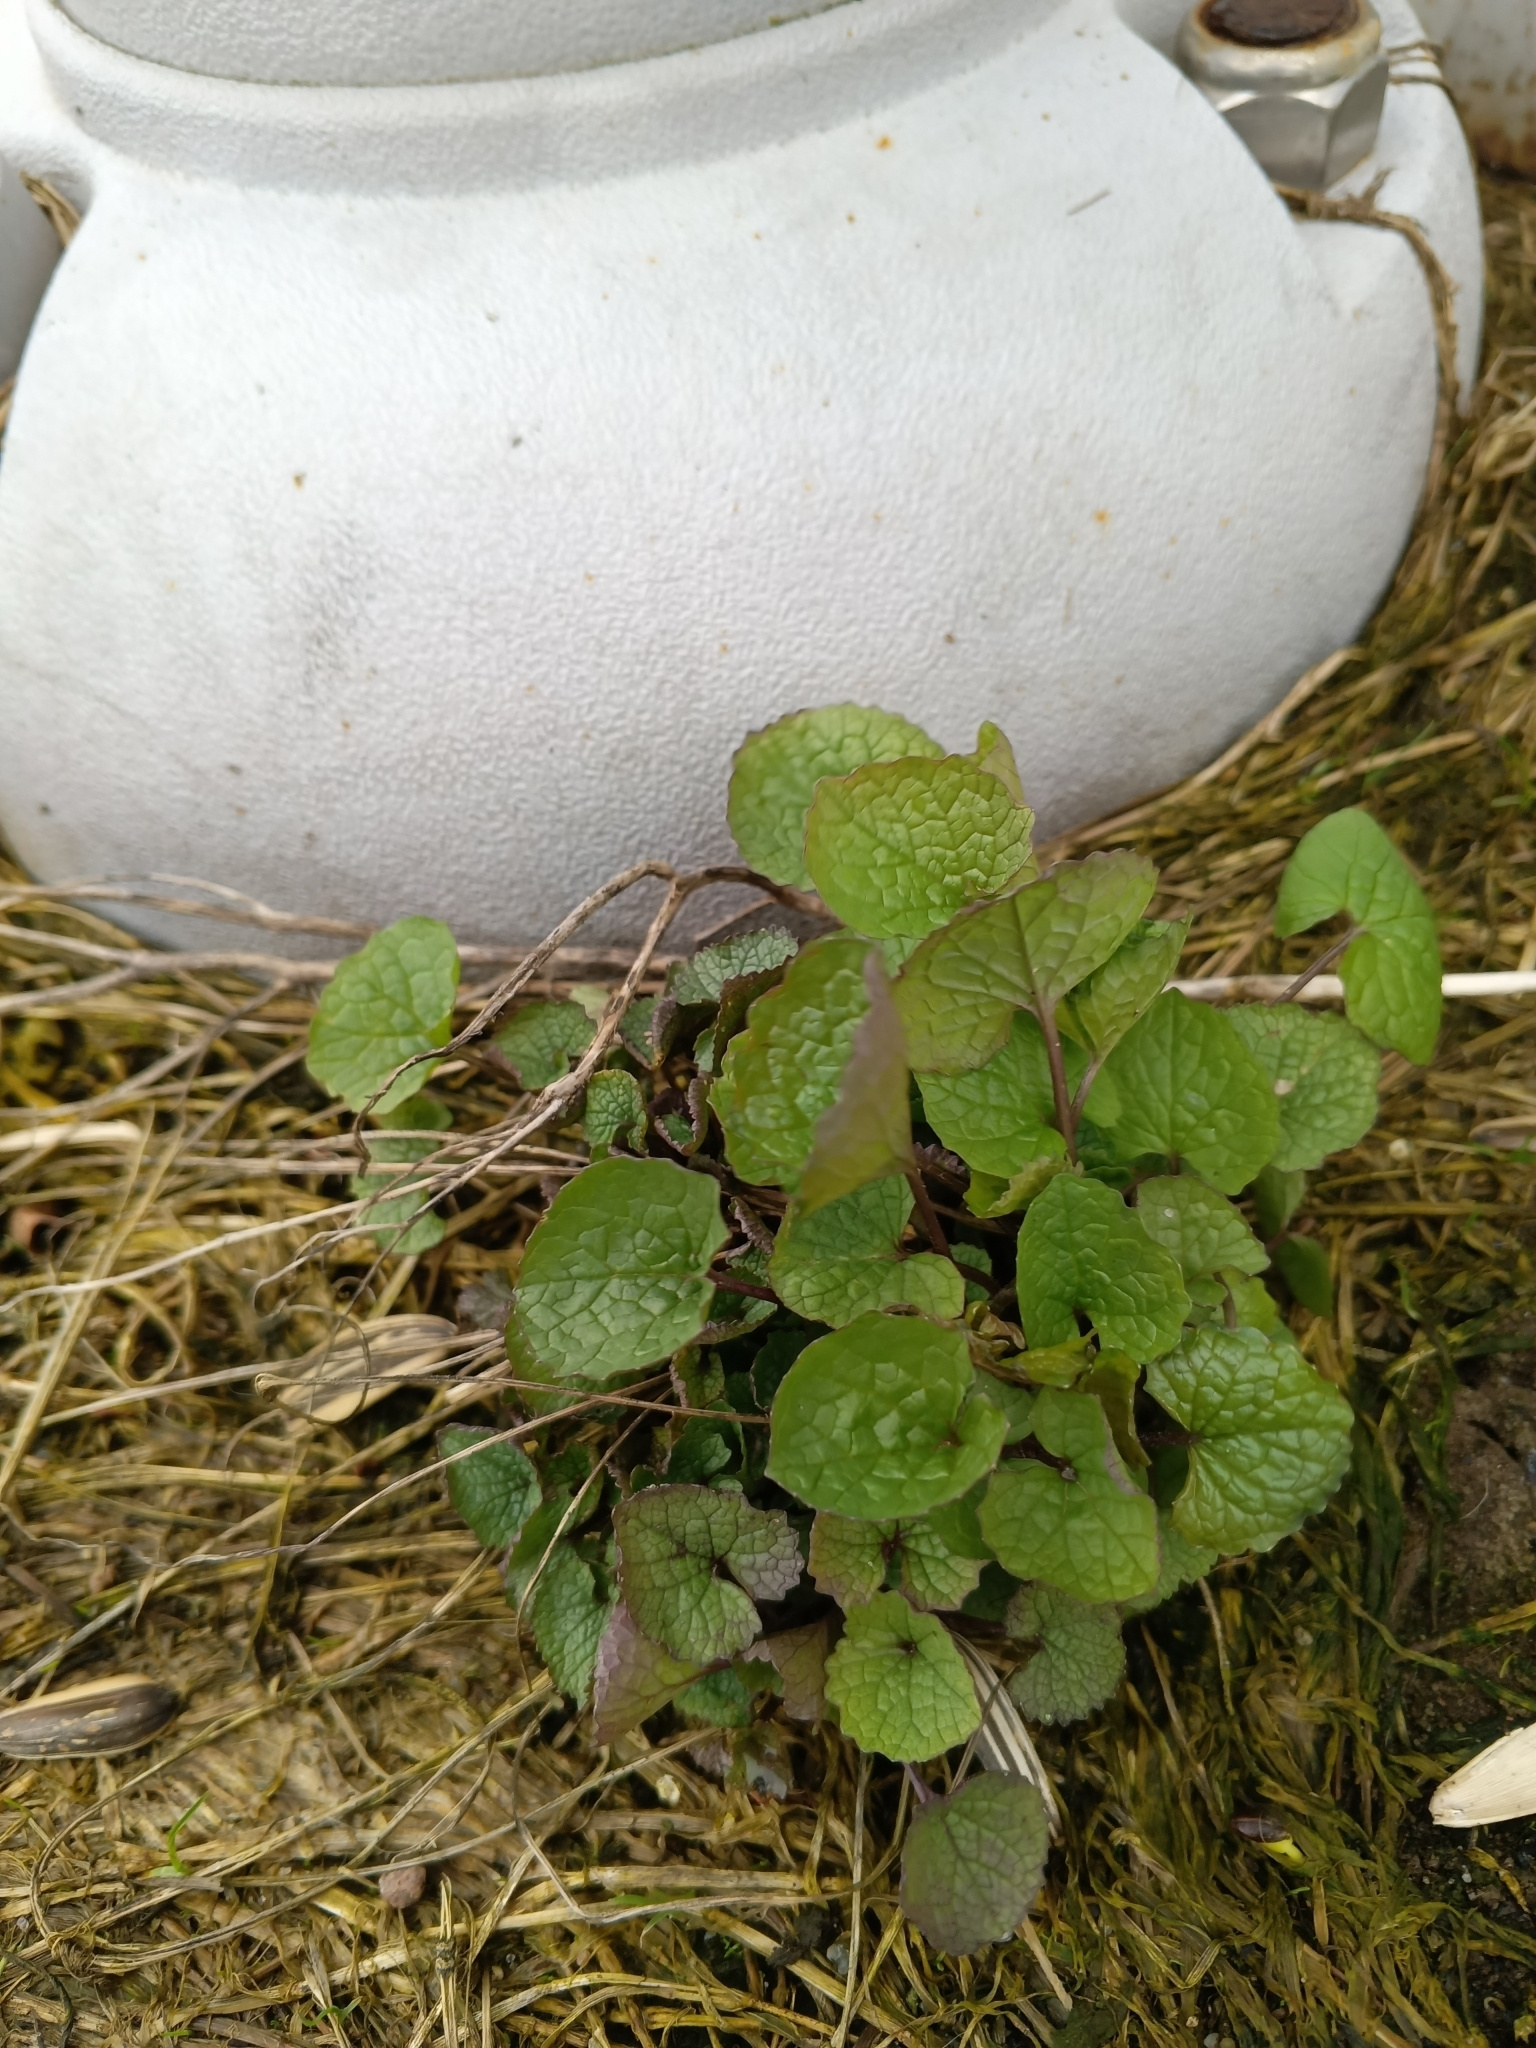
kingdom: Plantae
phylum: Tracheophyta
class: Magnoliopsida
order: Brassicales
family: Brassicaceae
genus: Alliaria
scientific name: Alliaria petiolata
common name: Garlic mustard
